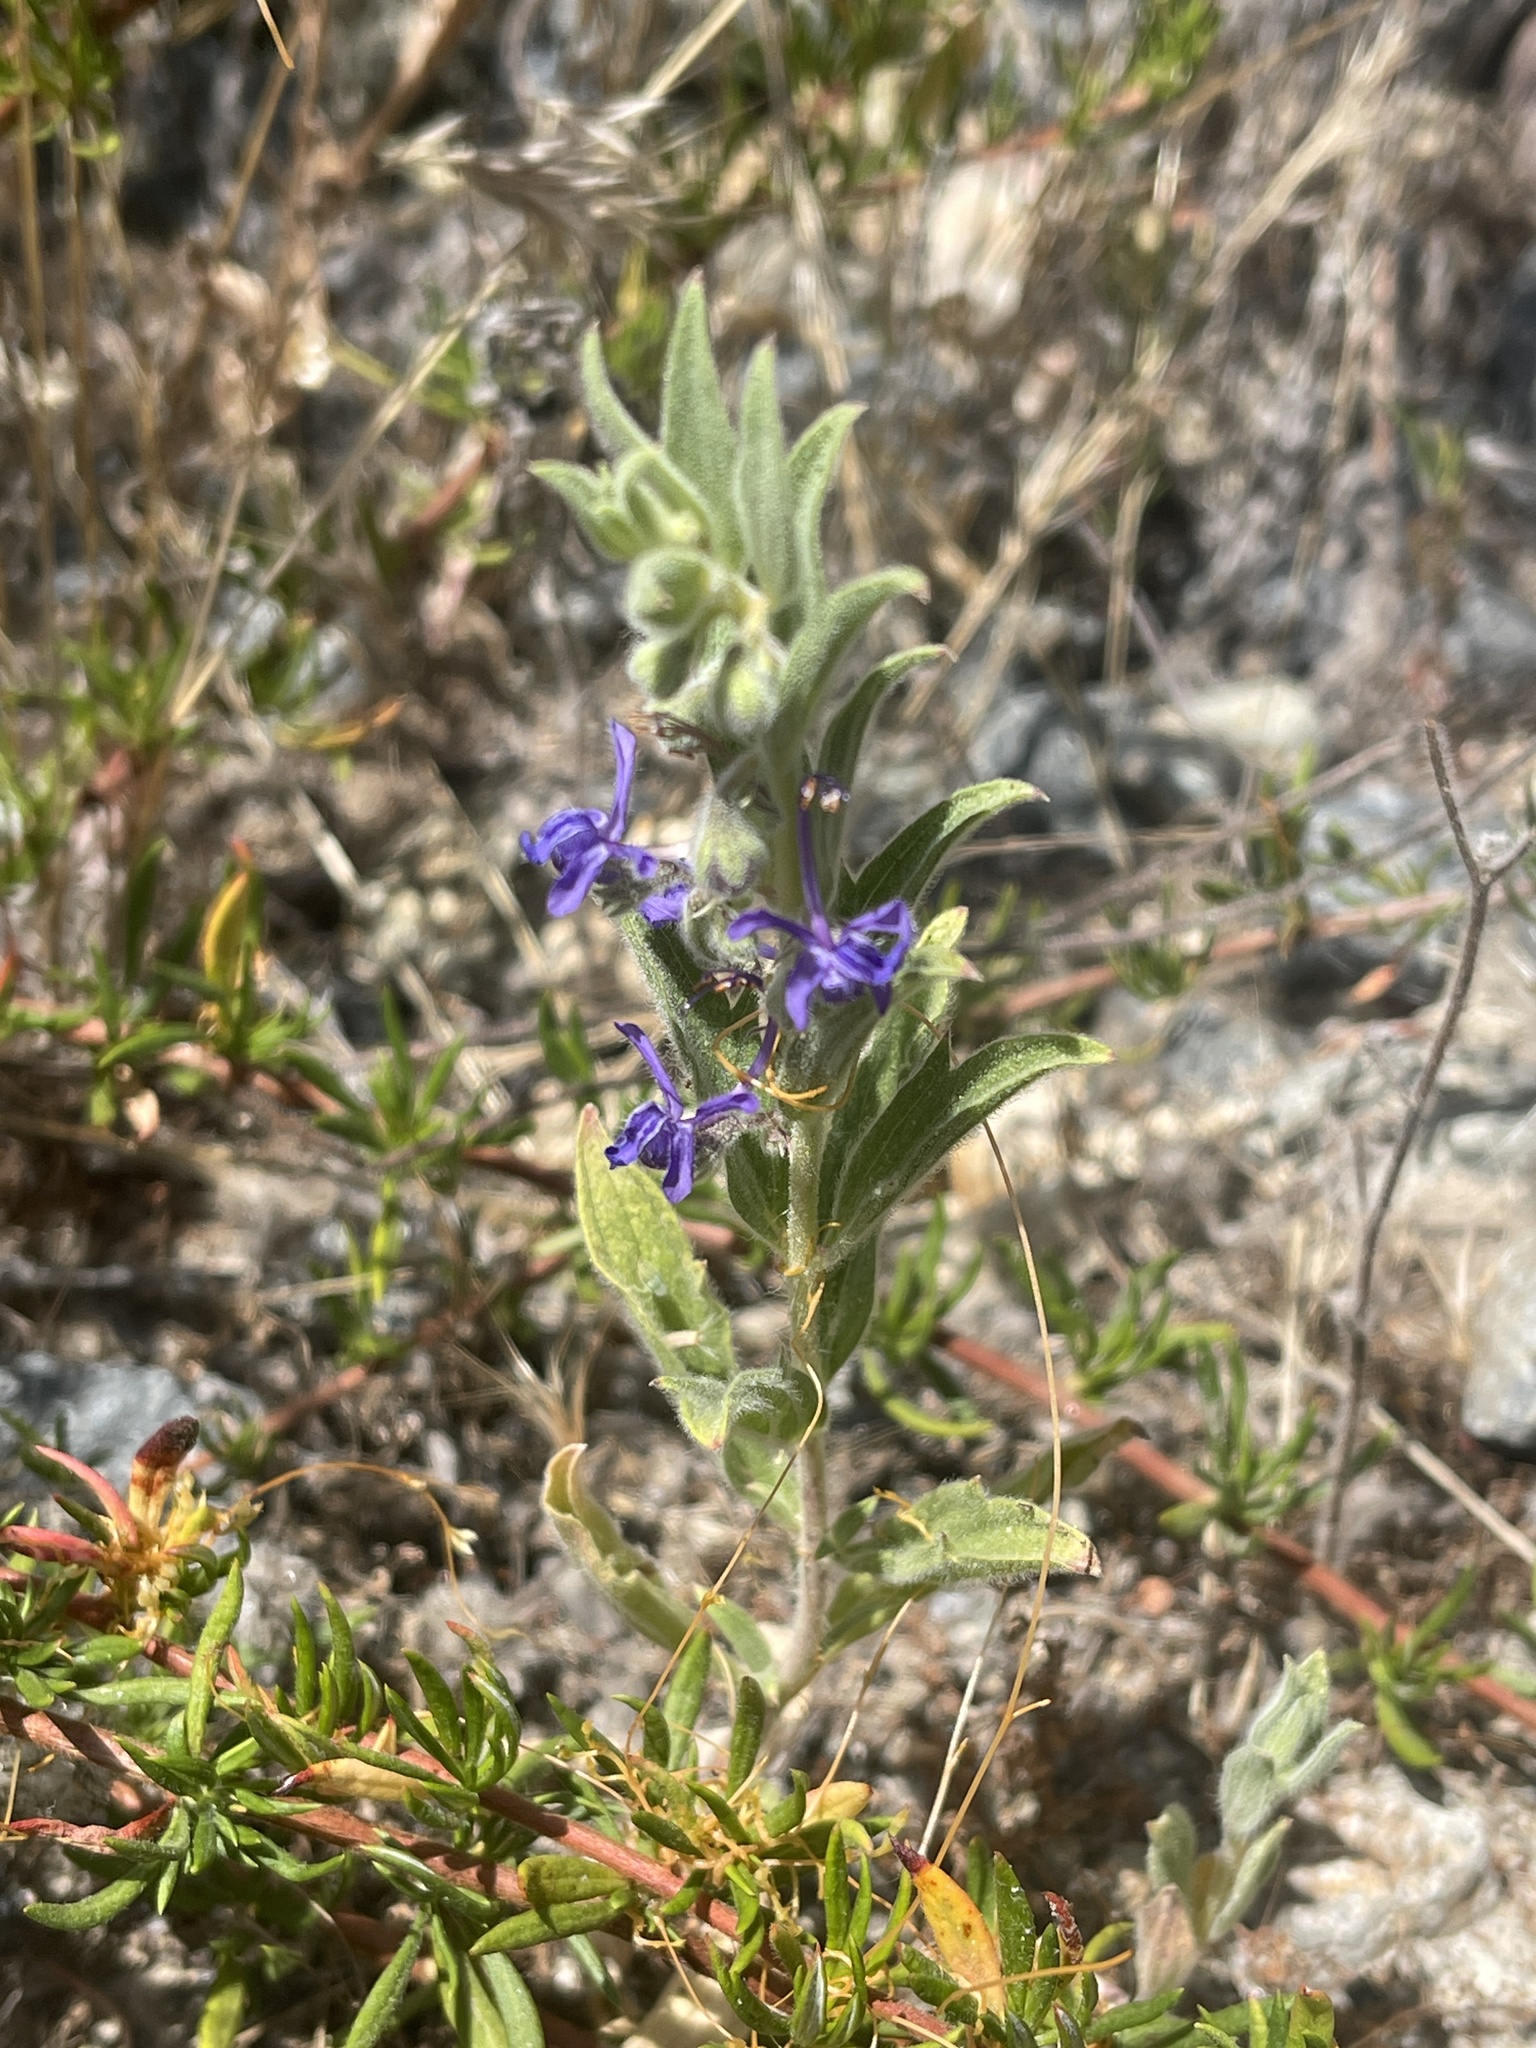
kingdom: Plantae
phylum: Tracheophyta
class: Magnoliopsida
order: Lamiales
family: Lamiaceae
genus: Trichostema
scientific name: Trichostema lanceolatum
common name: Vinegar-weed
